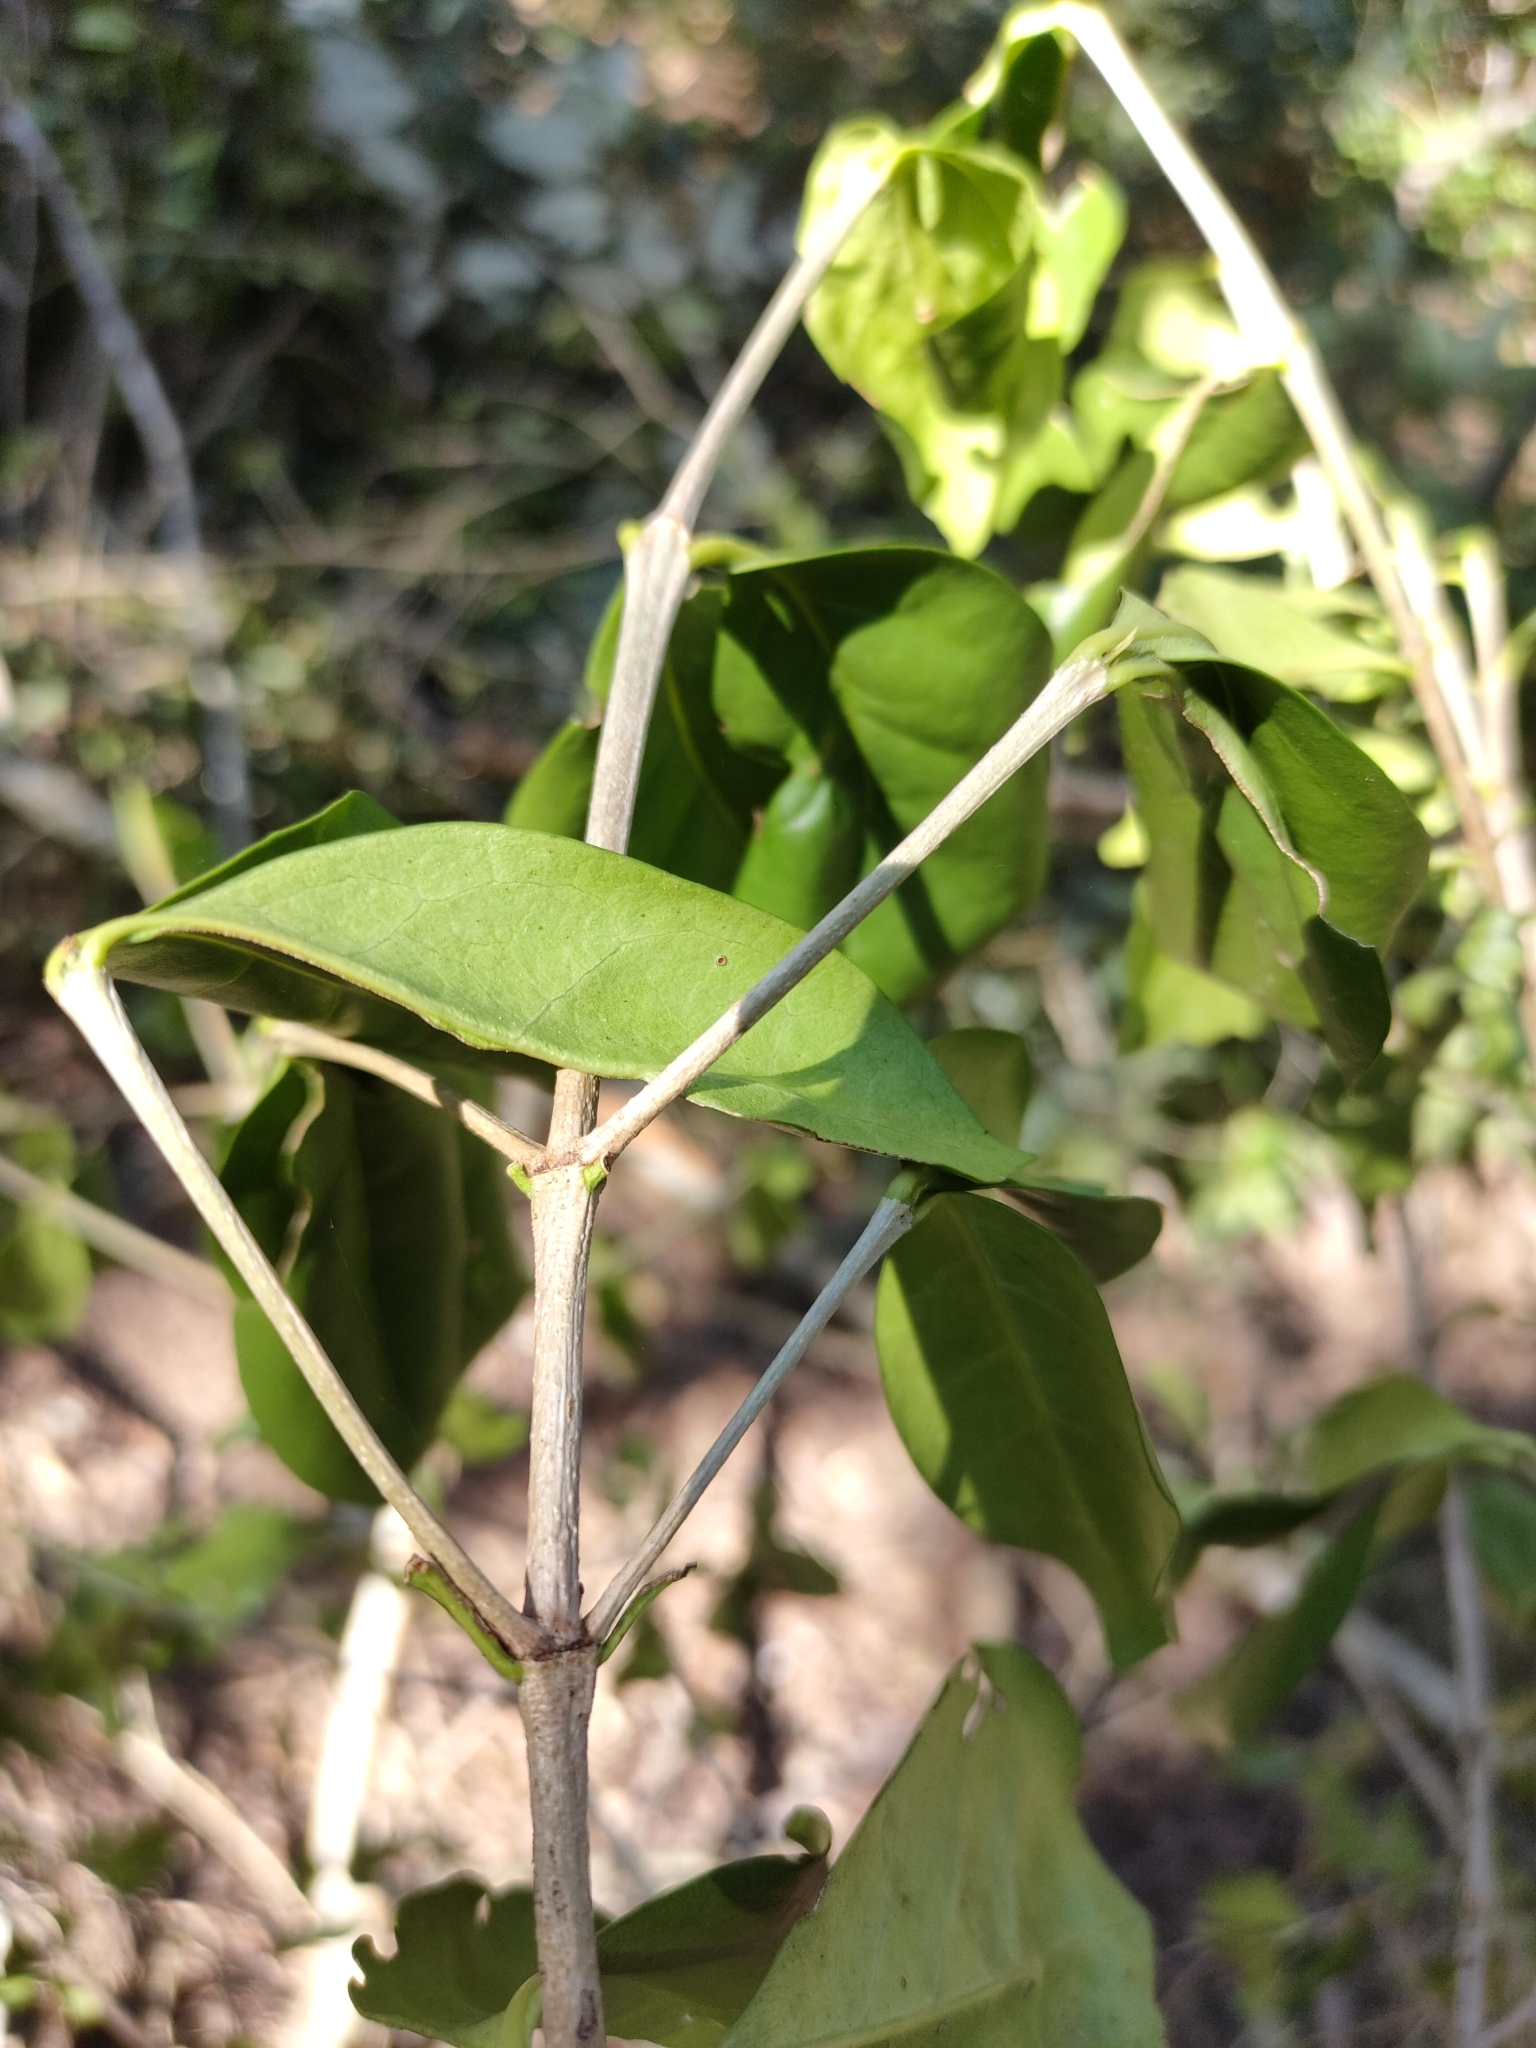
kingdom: Plantae
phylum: Tracheophyta
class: Magnoliopsida
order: Gentianales
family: Rubiaceae
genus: Cyclophyllum
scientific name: Cyclophyllum coprosmoides
